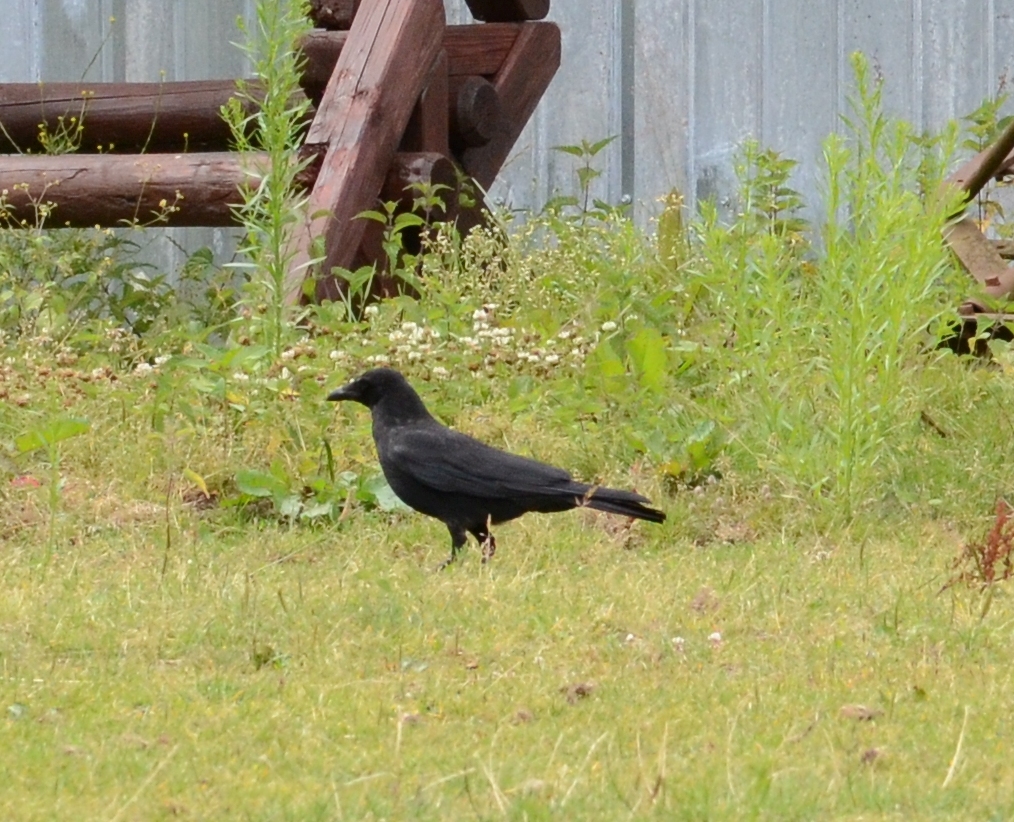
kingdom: Animalia
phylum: Chordata
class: Aves
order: Passeriformes
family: Corvidae
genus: Corvus
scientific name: Corvus corone
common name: Carrion crow
